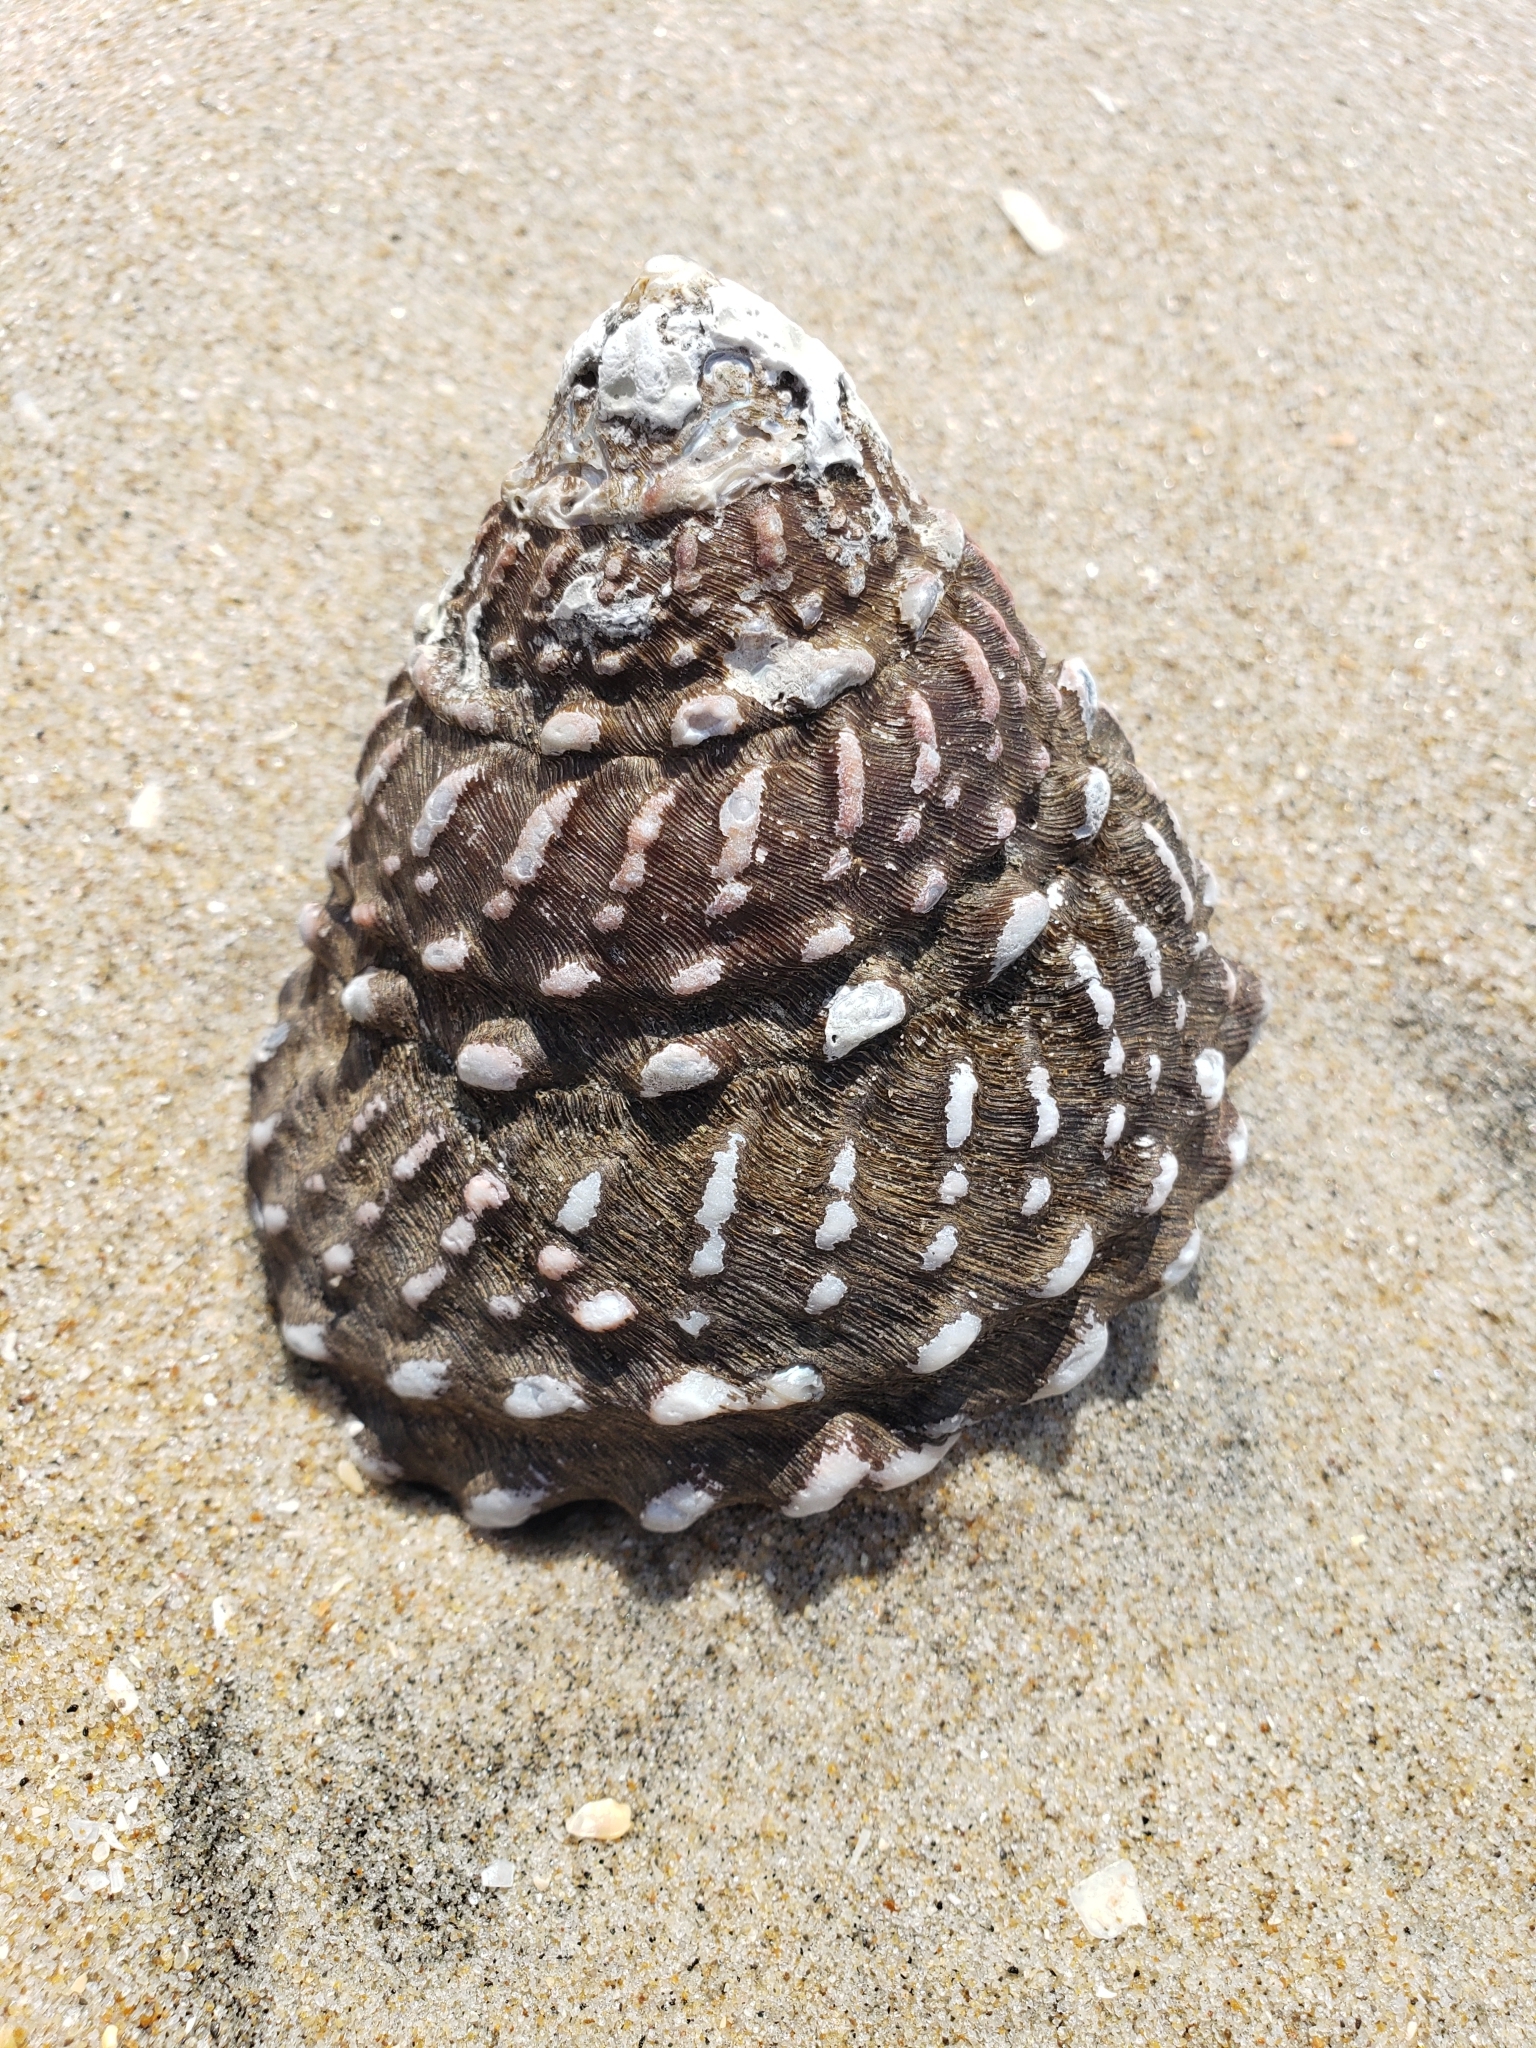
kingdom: Animalia
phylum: Mollusca
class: Gastropoda
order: Trochida
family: Turbinidae
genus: Megastraea
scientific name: Megastraea undosa
